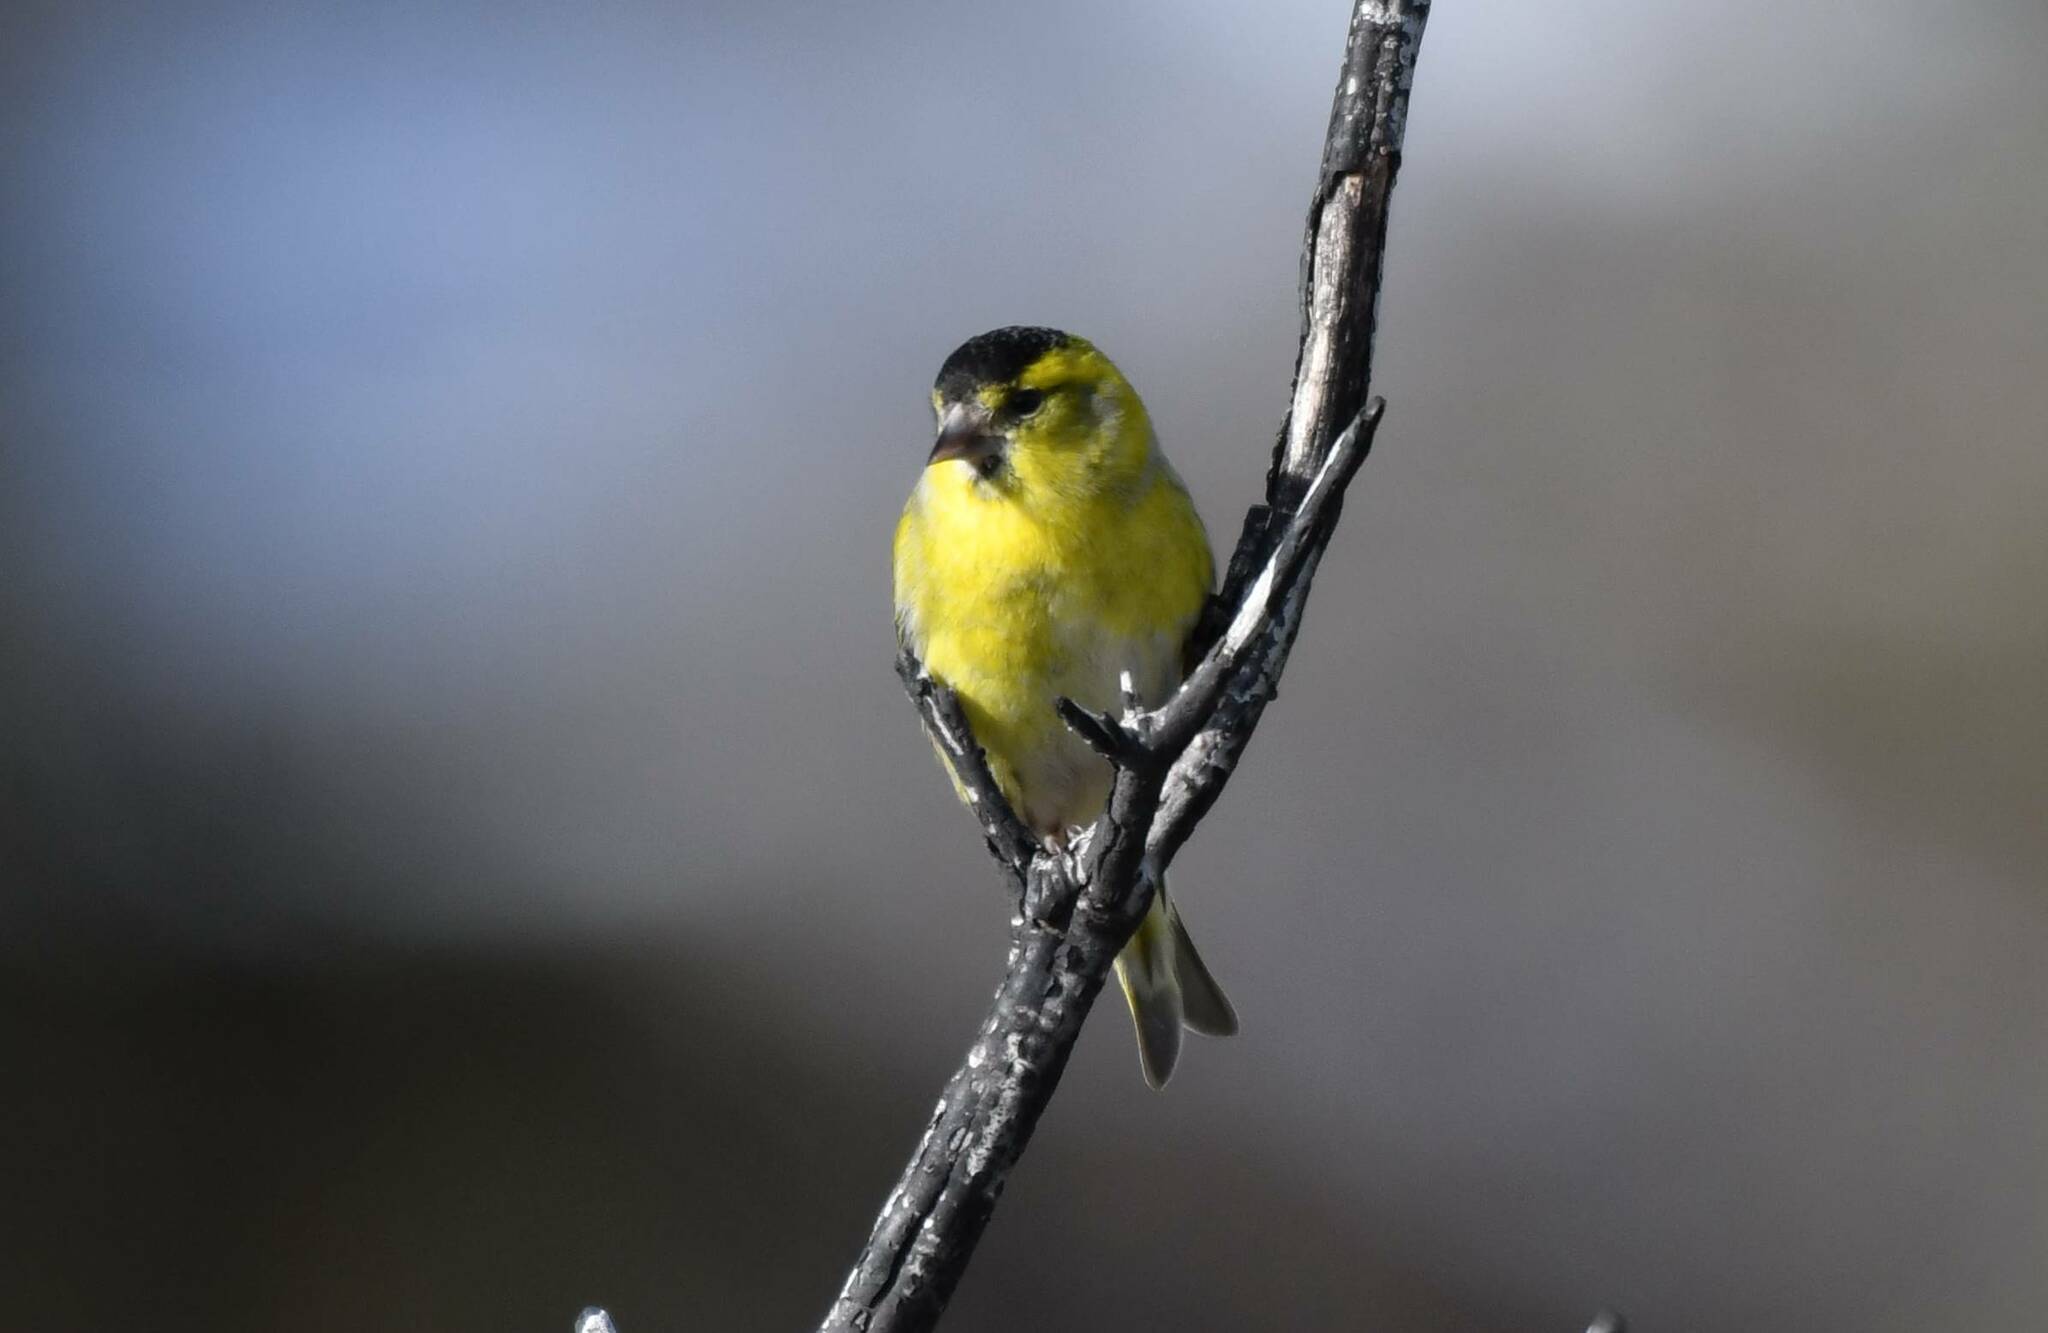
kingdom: Animalia
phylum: Chordata
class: Aves
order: Passeriformes
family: Fringillidae
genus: Spinus
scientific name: Spinus spinus
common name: Eurasian siskin
